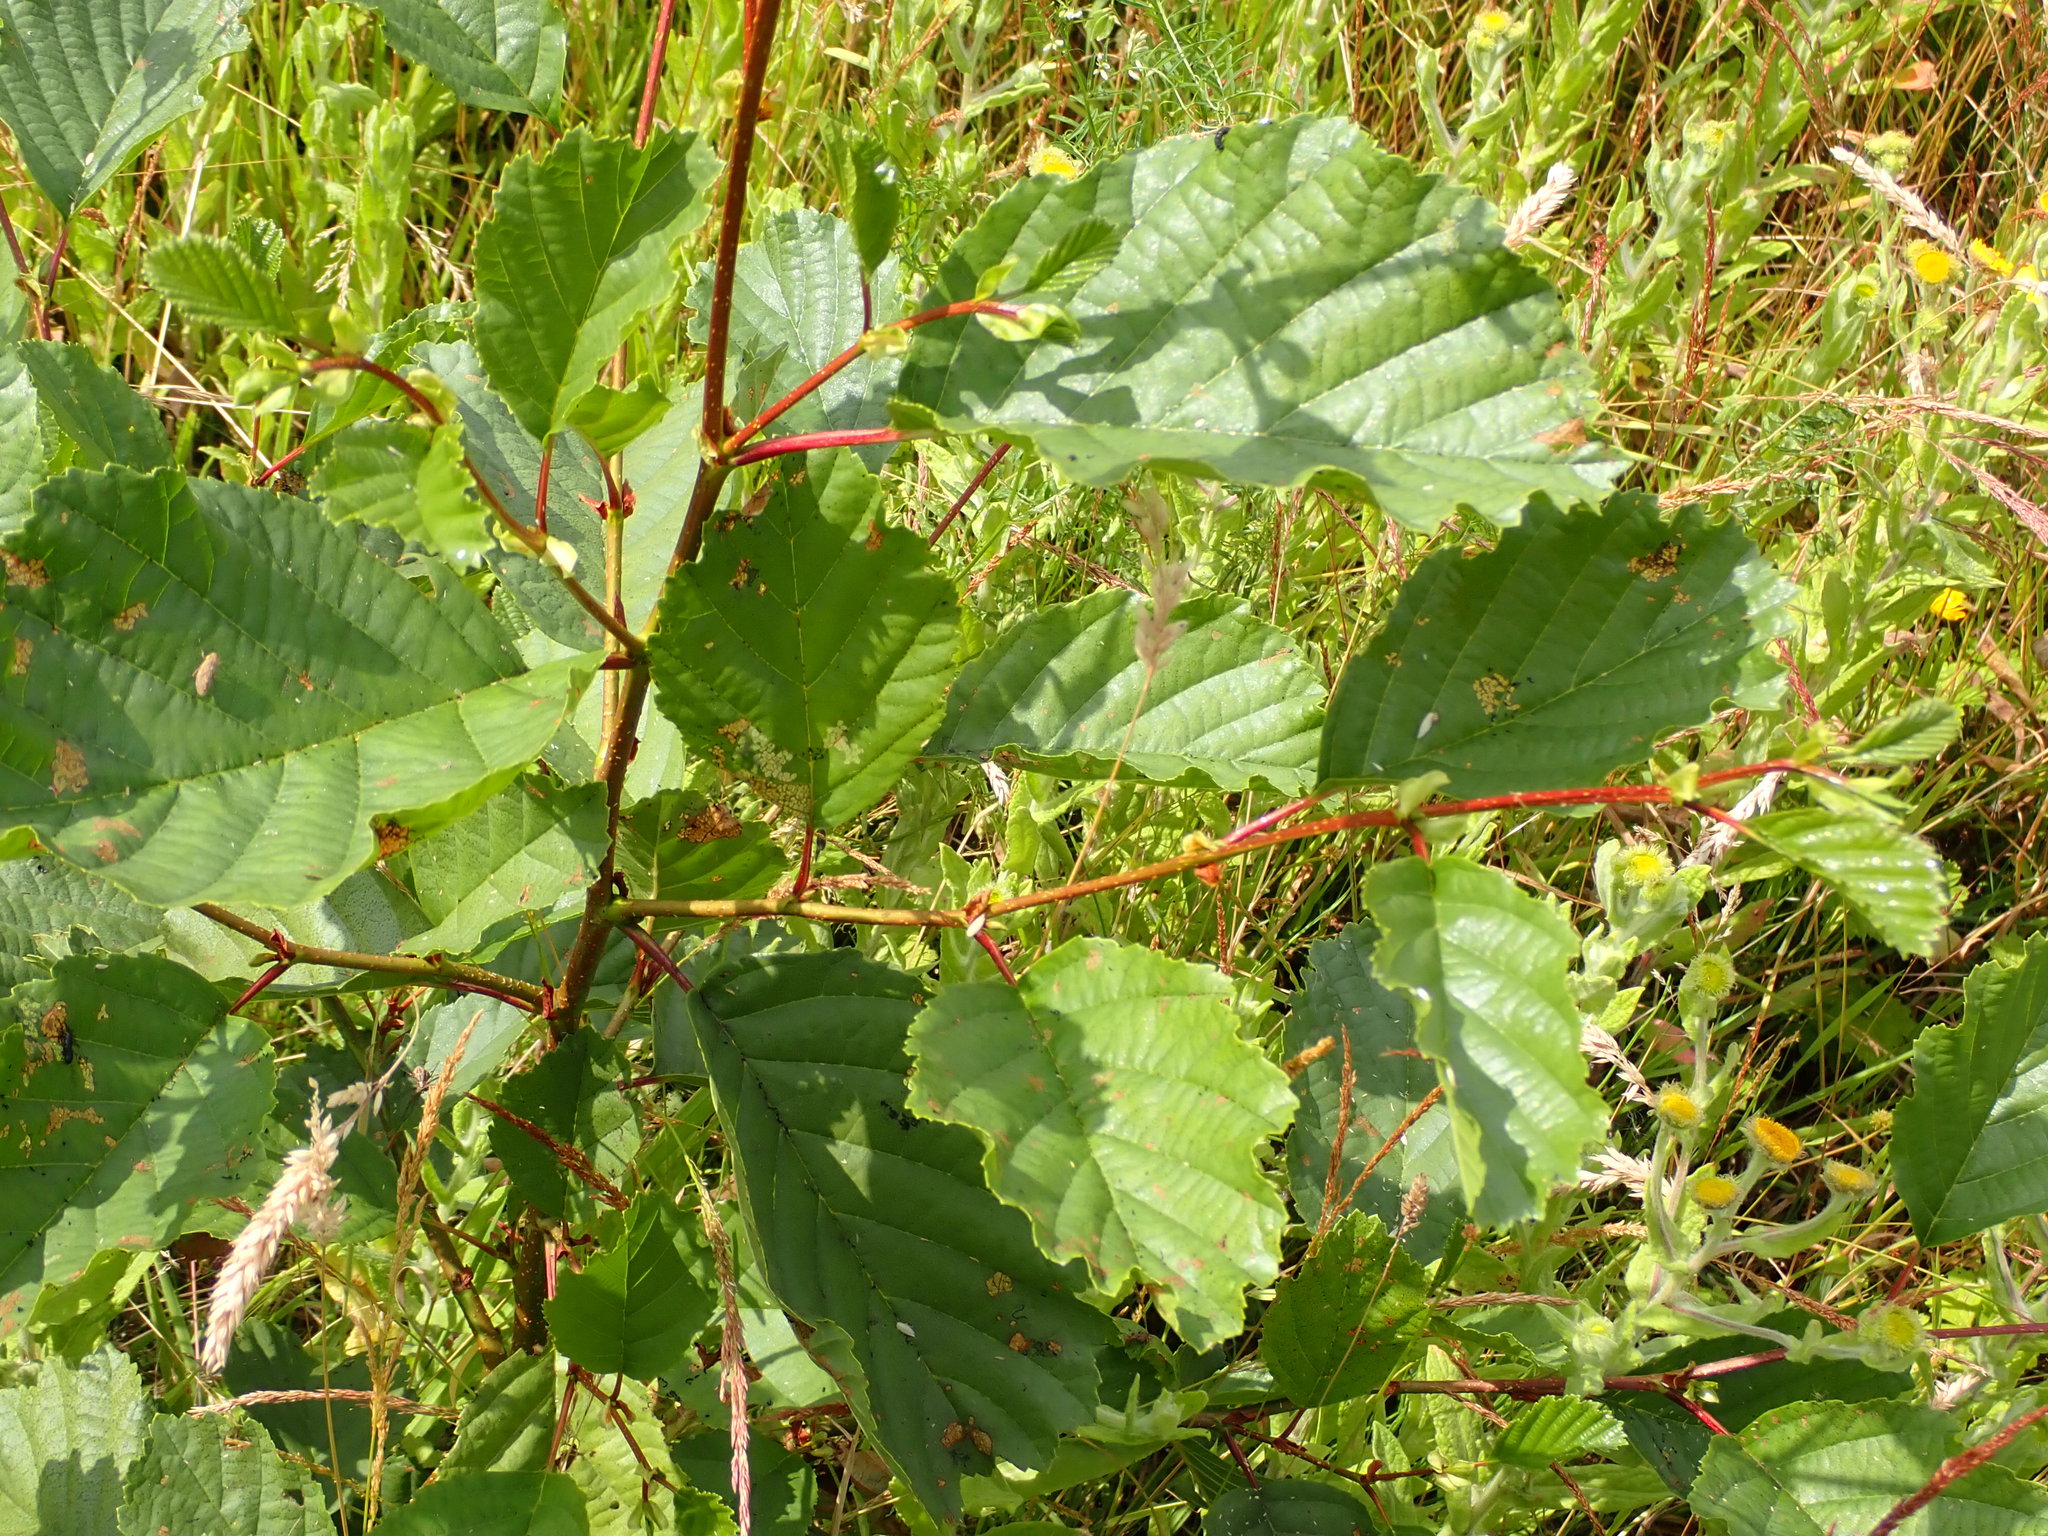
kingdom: Plantae
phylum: Tracheophyta
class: Magnoliopsida
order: Fagales
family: Betulaceae
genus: Alnus
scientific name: Alnus glutinosa
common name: Black alder
